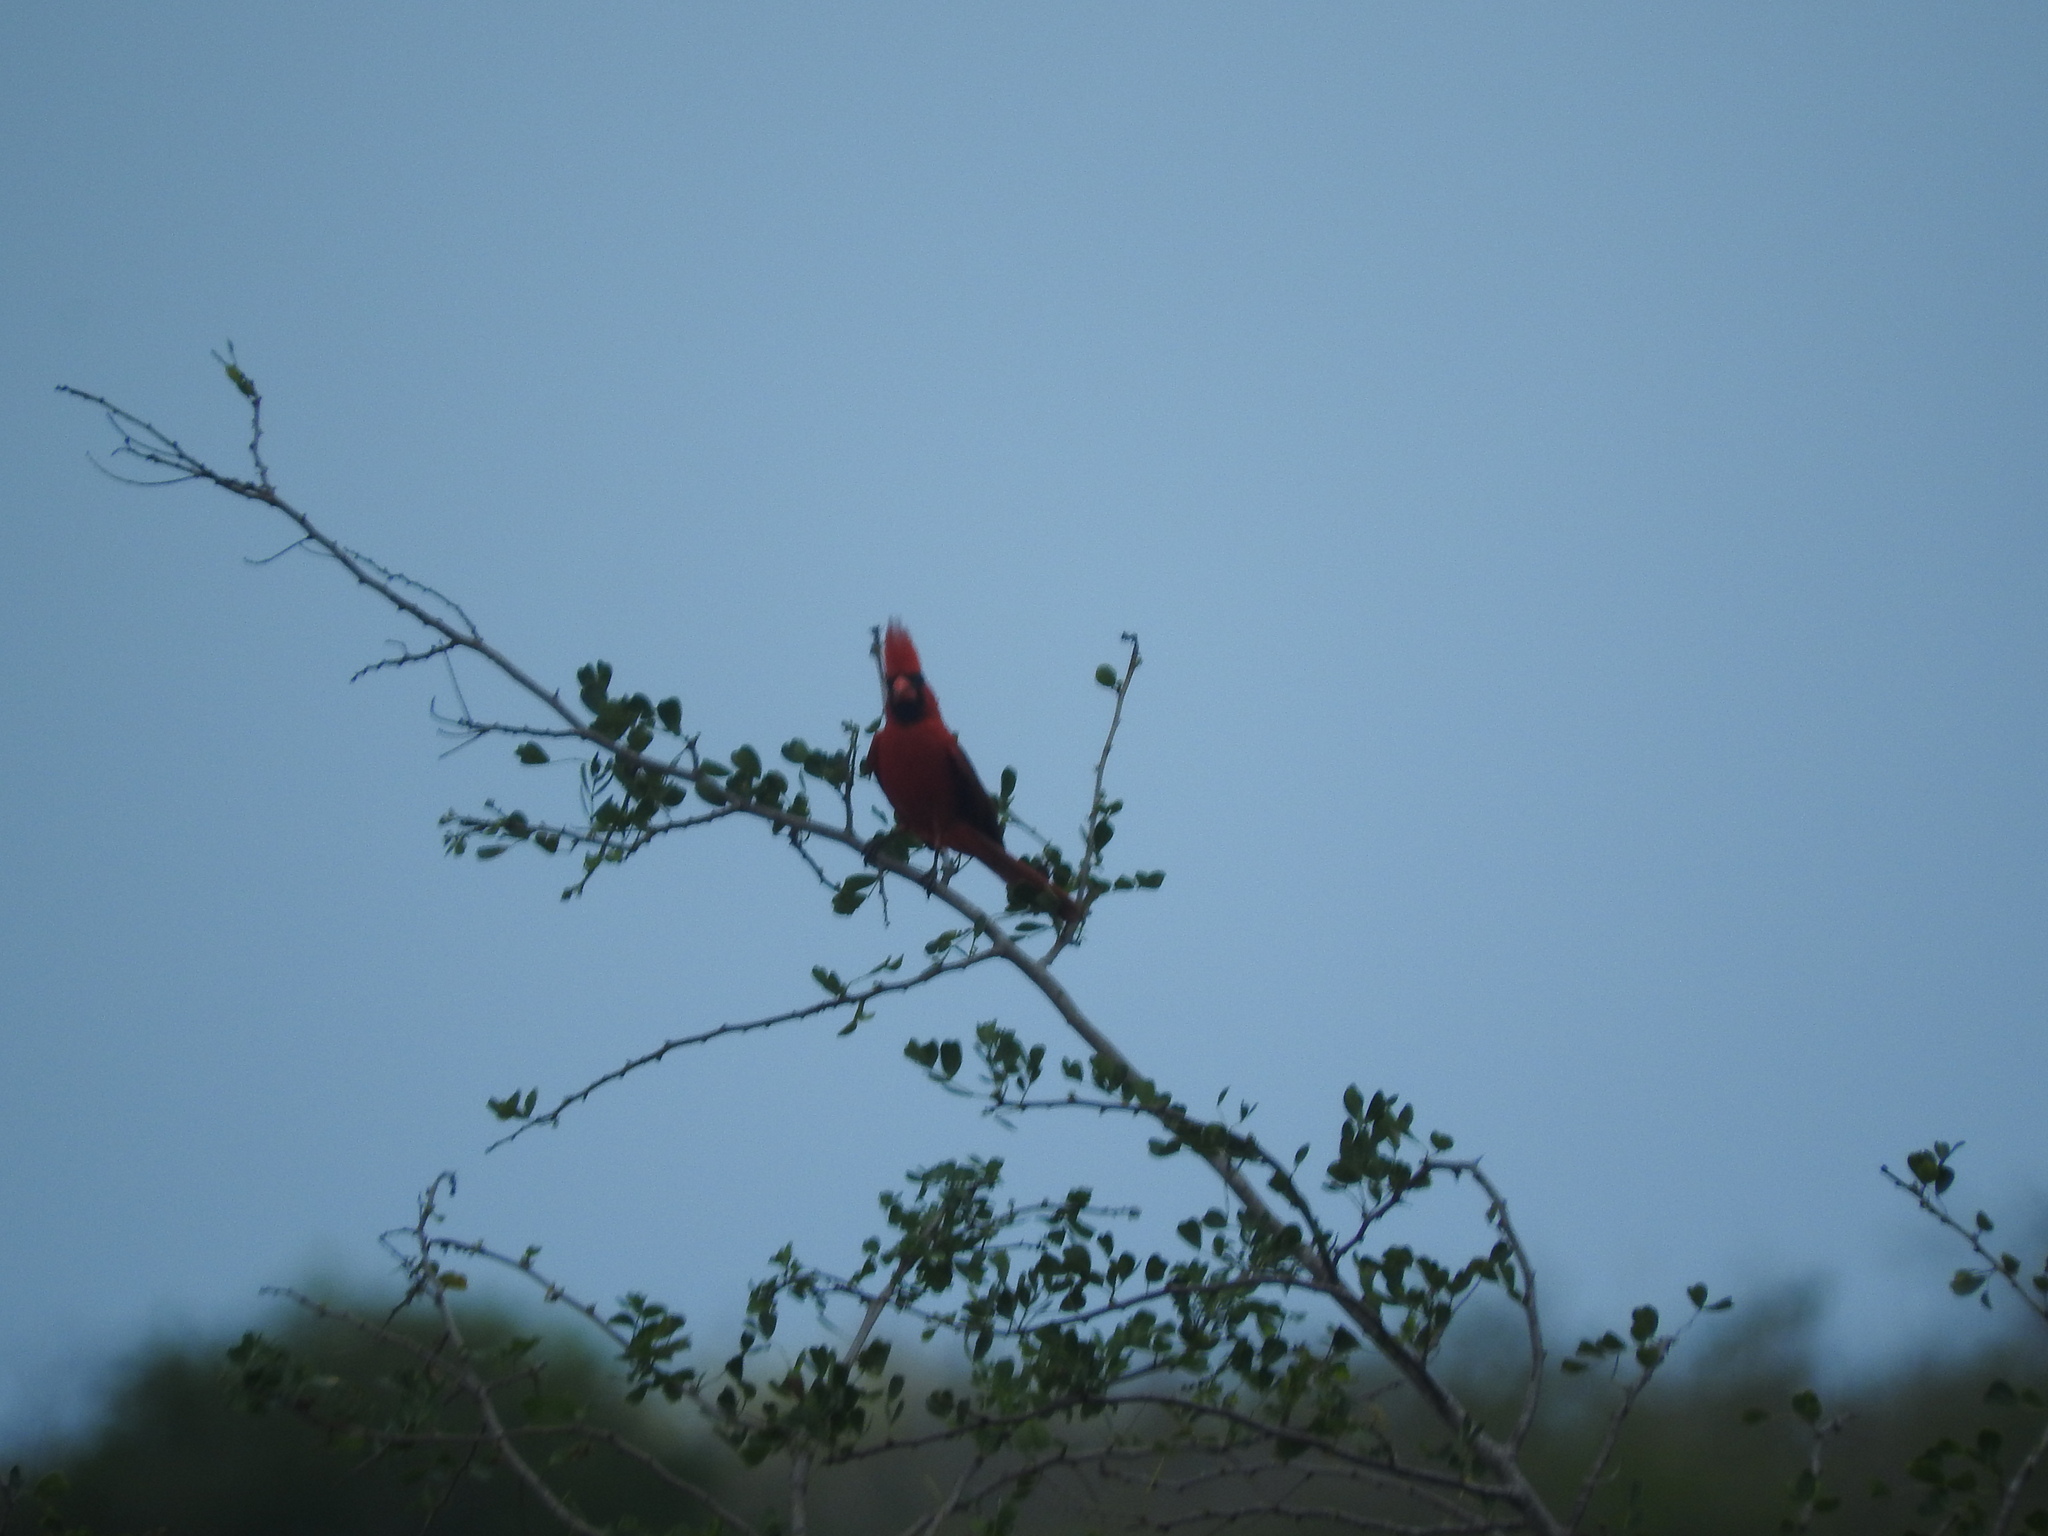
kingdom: Animalia
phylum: Chordata
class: Aves
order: Passeriformes
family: Cardinalidae
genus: Cardinalis
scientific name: Cardinalis cardinalis
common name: Northern cardinal
